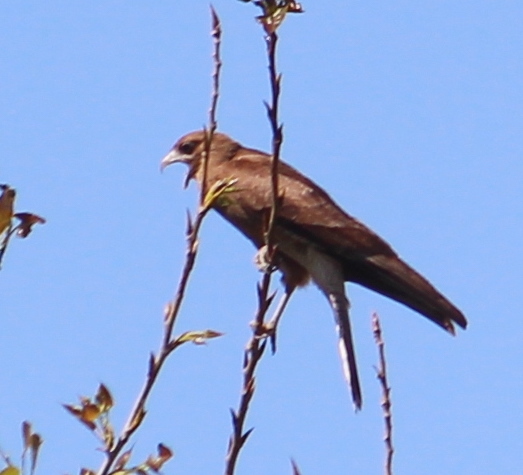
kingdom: Animalia
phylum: Chordata
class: Aves
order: Falconiformes
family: Falconidae
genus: Daptrius
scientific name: Daptrius
